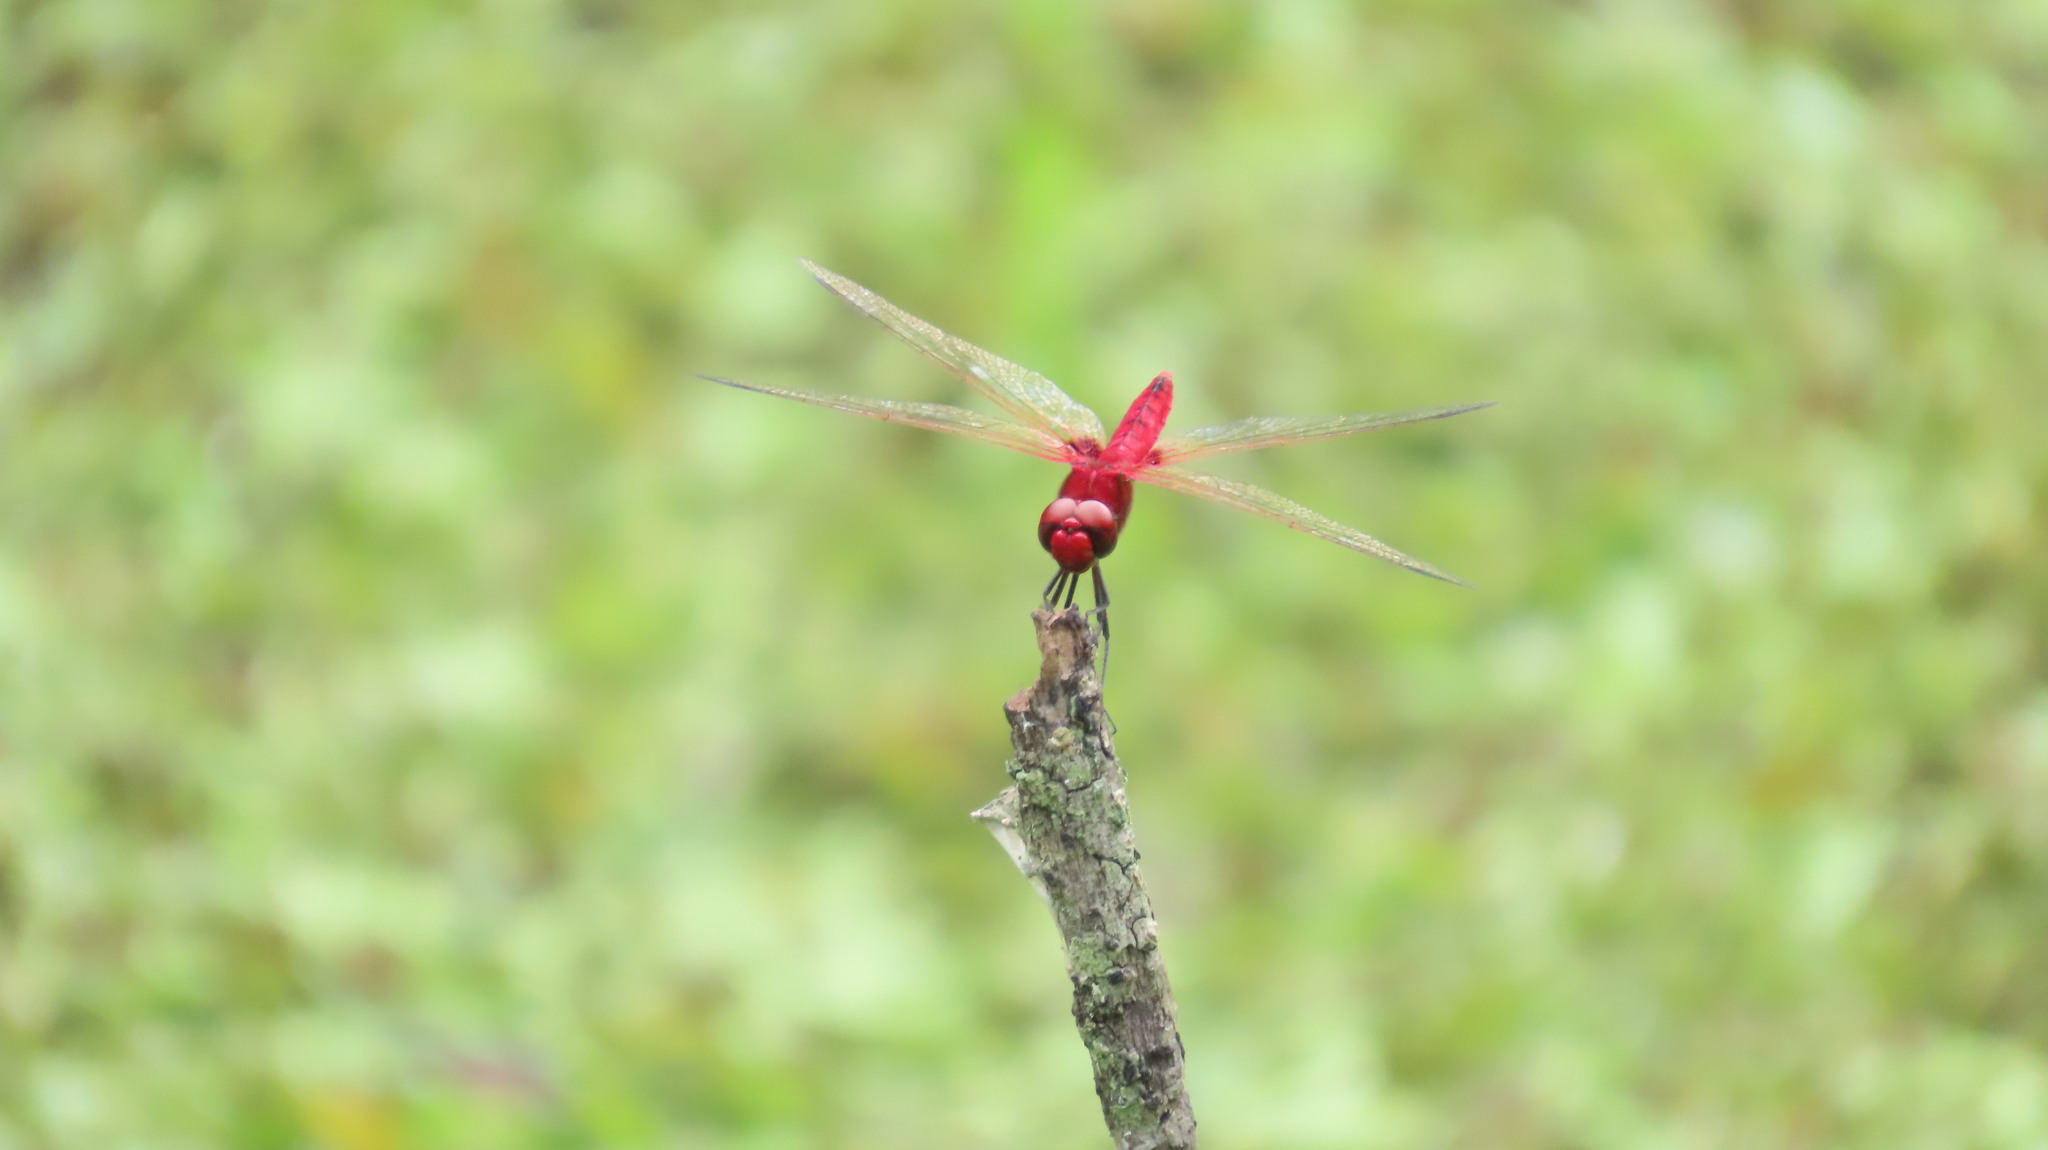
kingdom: Animalia
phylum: Arthropoda
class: Insecta
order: Odonata
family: Libellulidae
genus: Urothemis
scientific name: Urothemis signata
